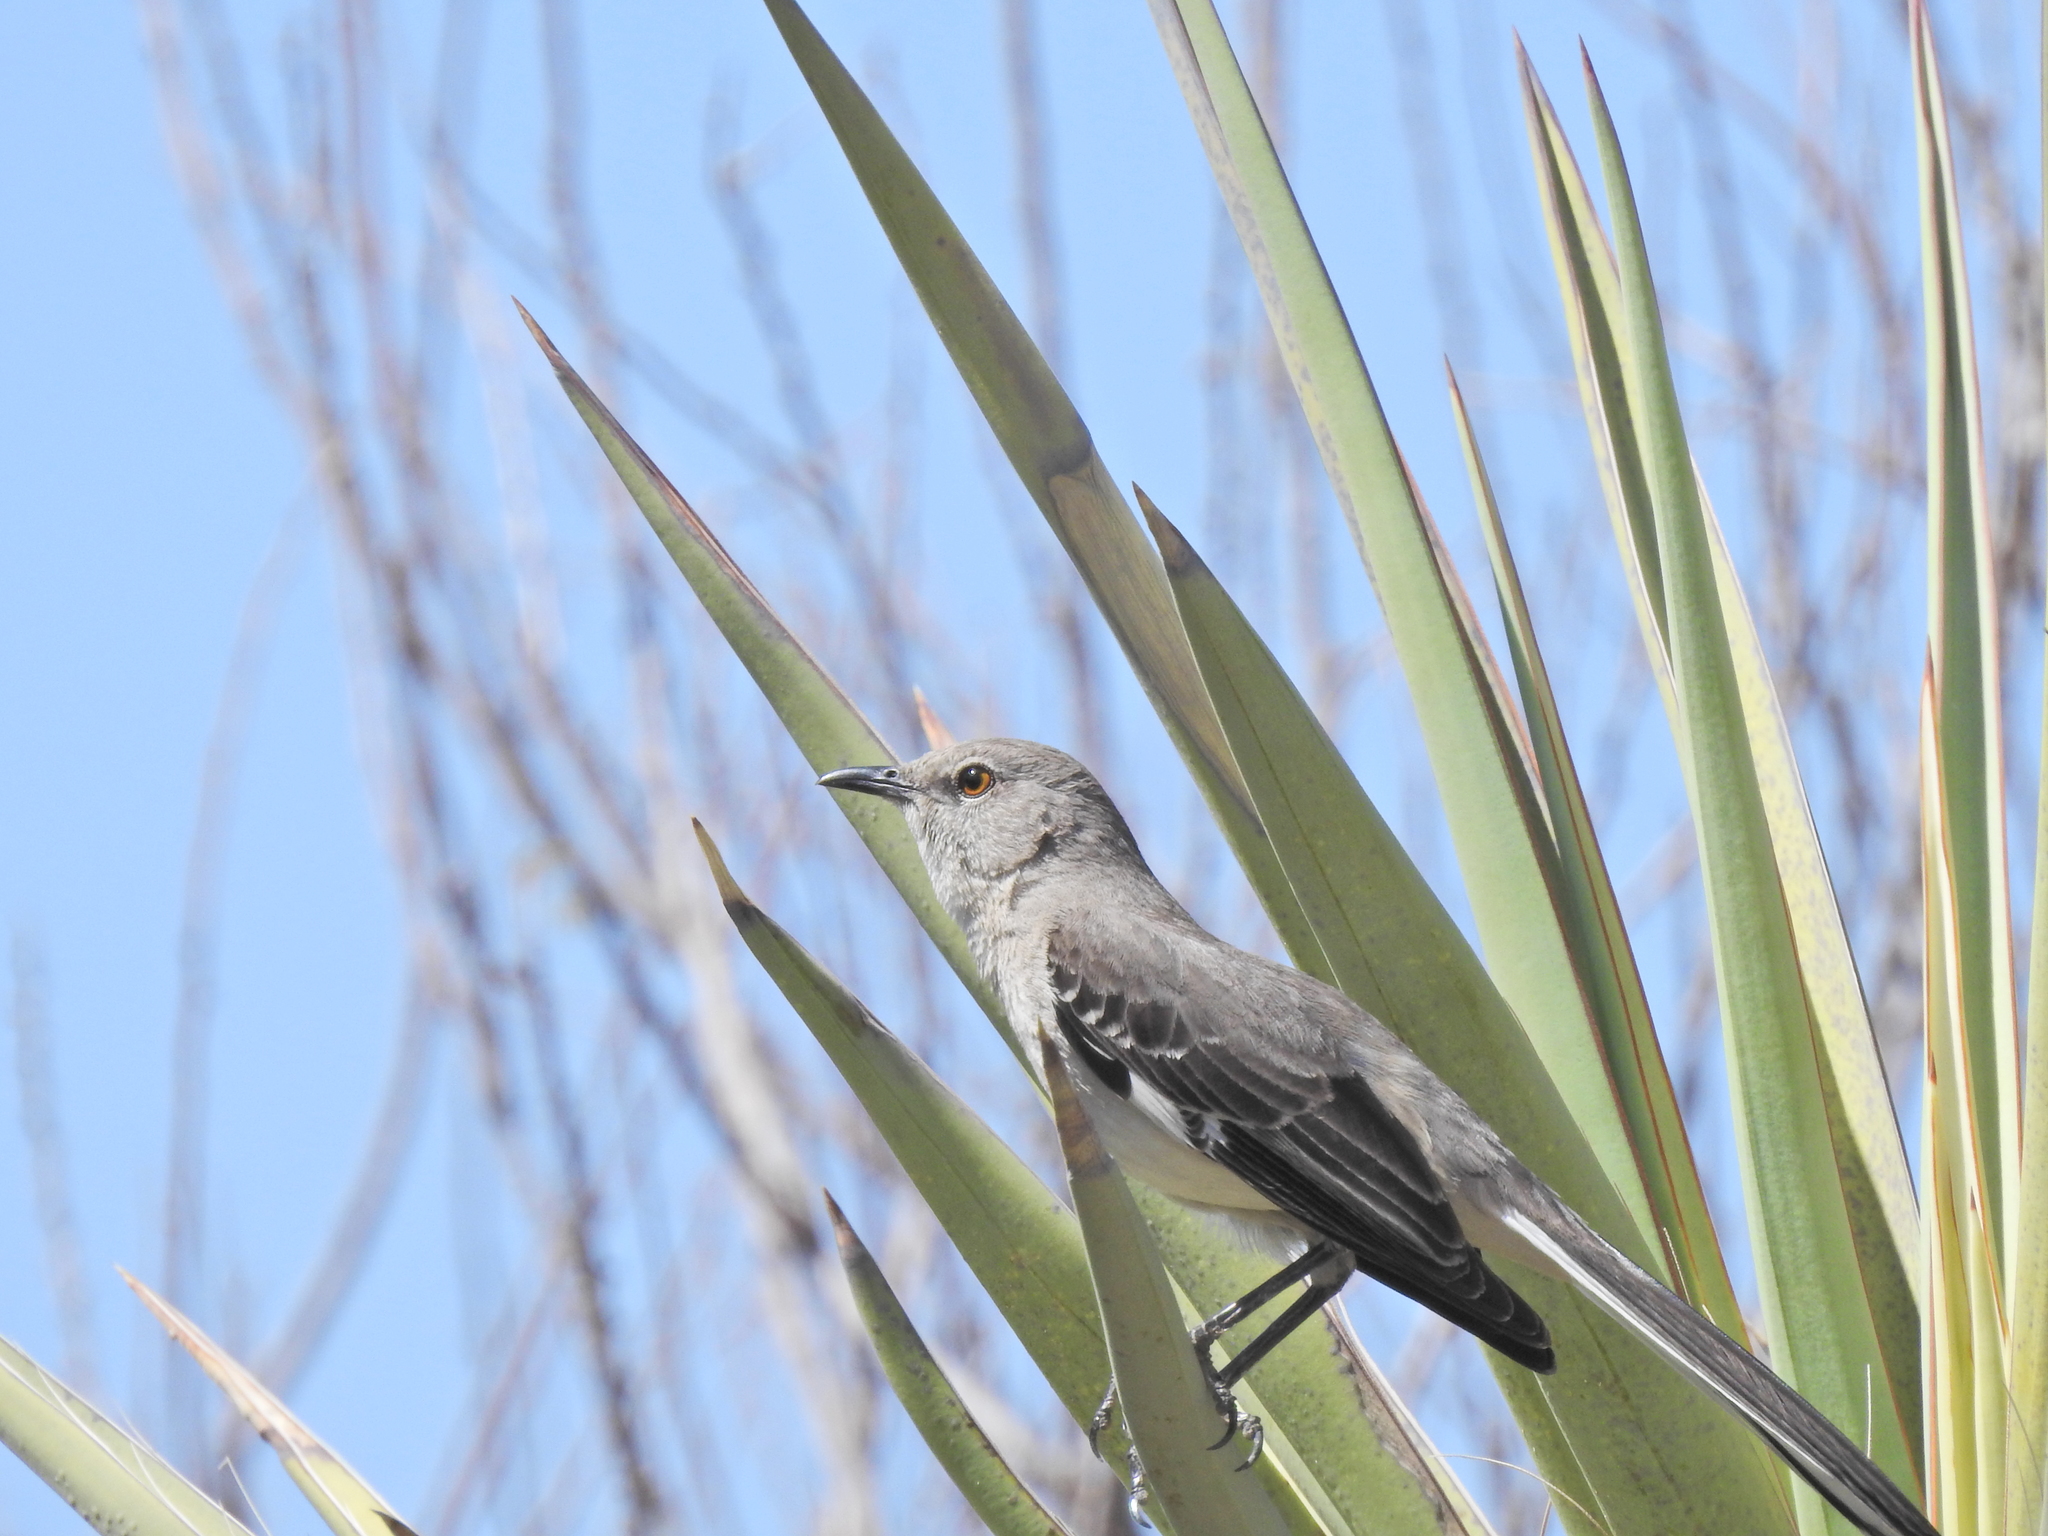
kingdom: Animalia
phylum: Chordata
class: Aves
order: Passeriformes
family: Mimidae
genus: Mimus
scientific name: Mimus polyglottos
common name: Northern mockingbird
